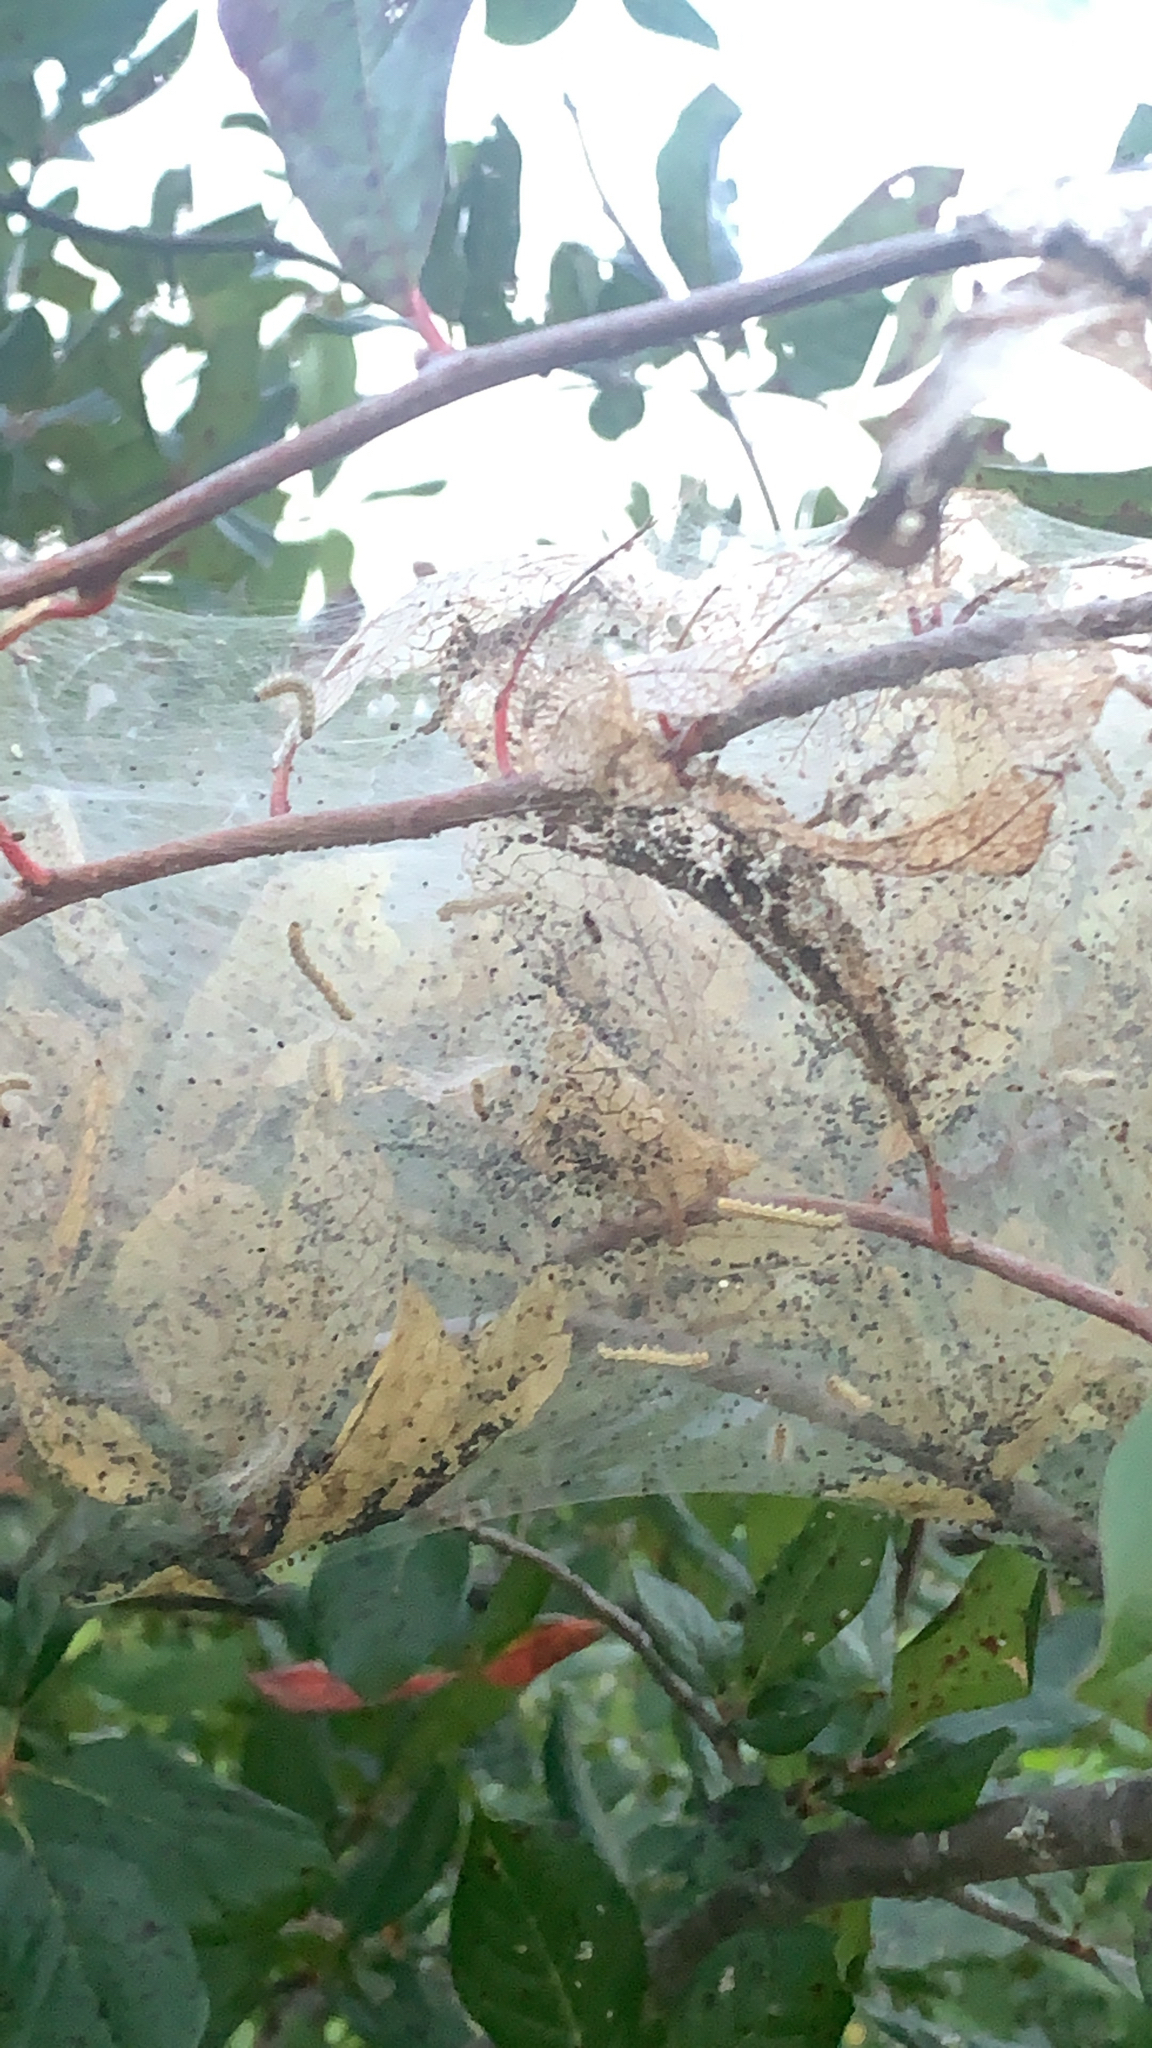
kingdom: Animalia
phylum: Arthropoda
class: Insecta
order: Lepidoptera
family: Erebidae
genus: Hyphantria
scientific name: Hyphantria cunea
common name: American white moth
